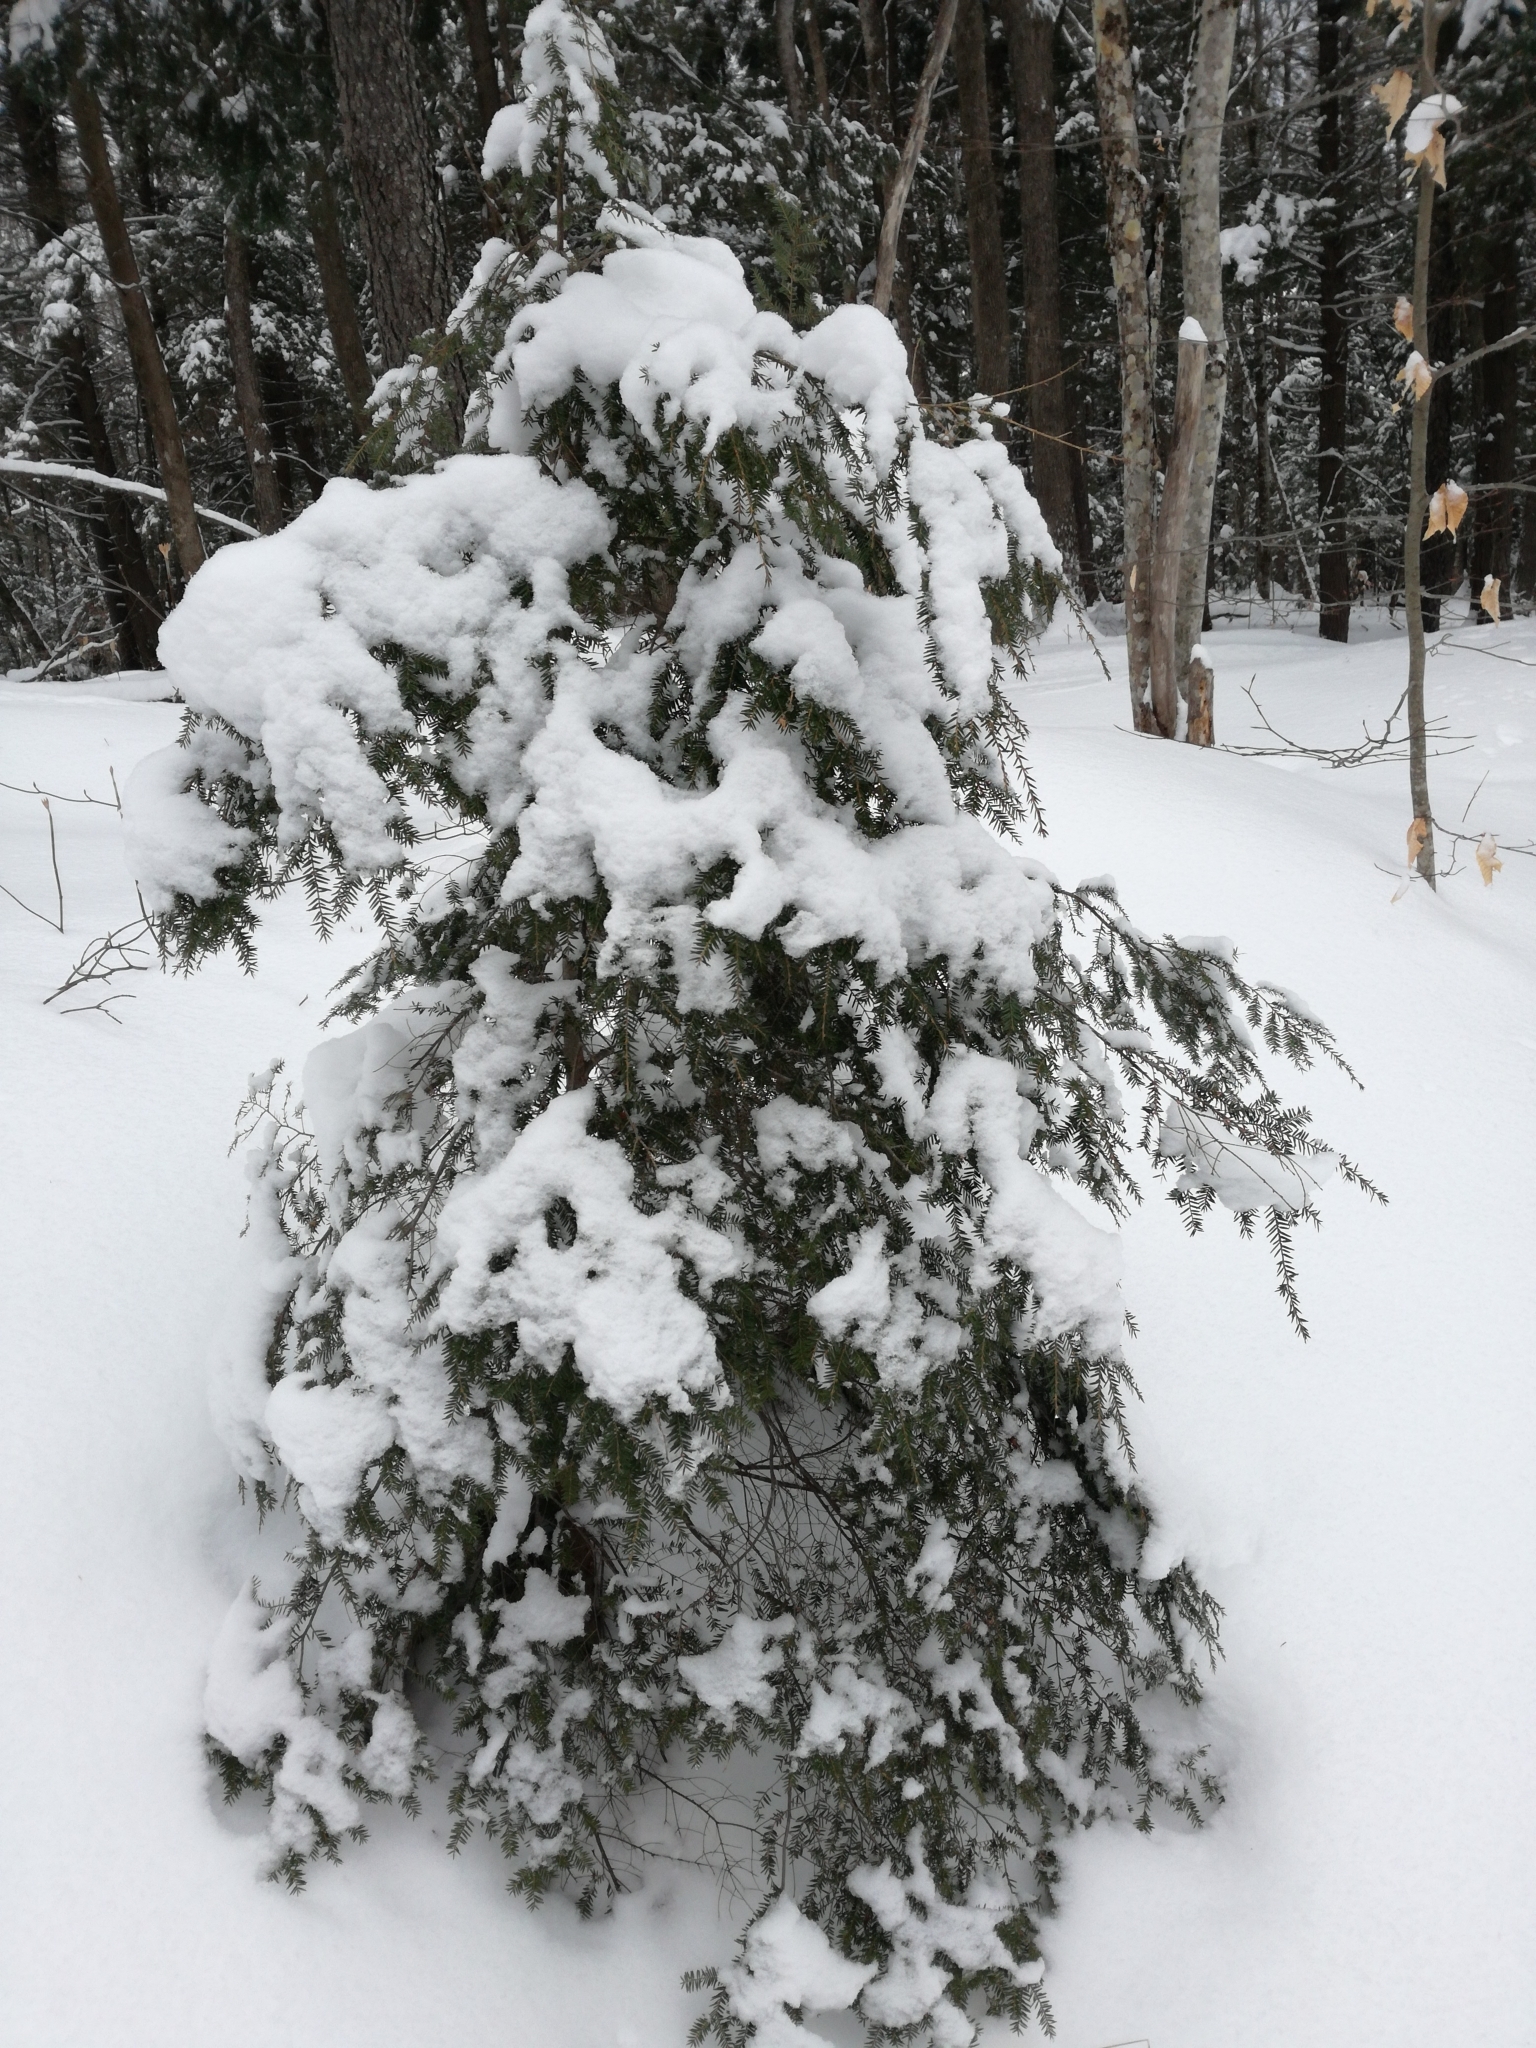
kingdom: Plantae
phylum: Tracheophyta
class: Pinopsida
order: Pinales
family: Pinaceae
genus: Tsuga
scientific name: Tsuga canadensis
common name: Eastern hemlock
